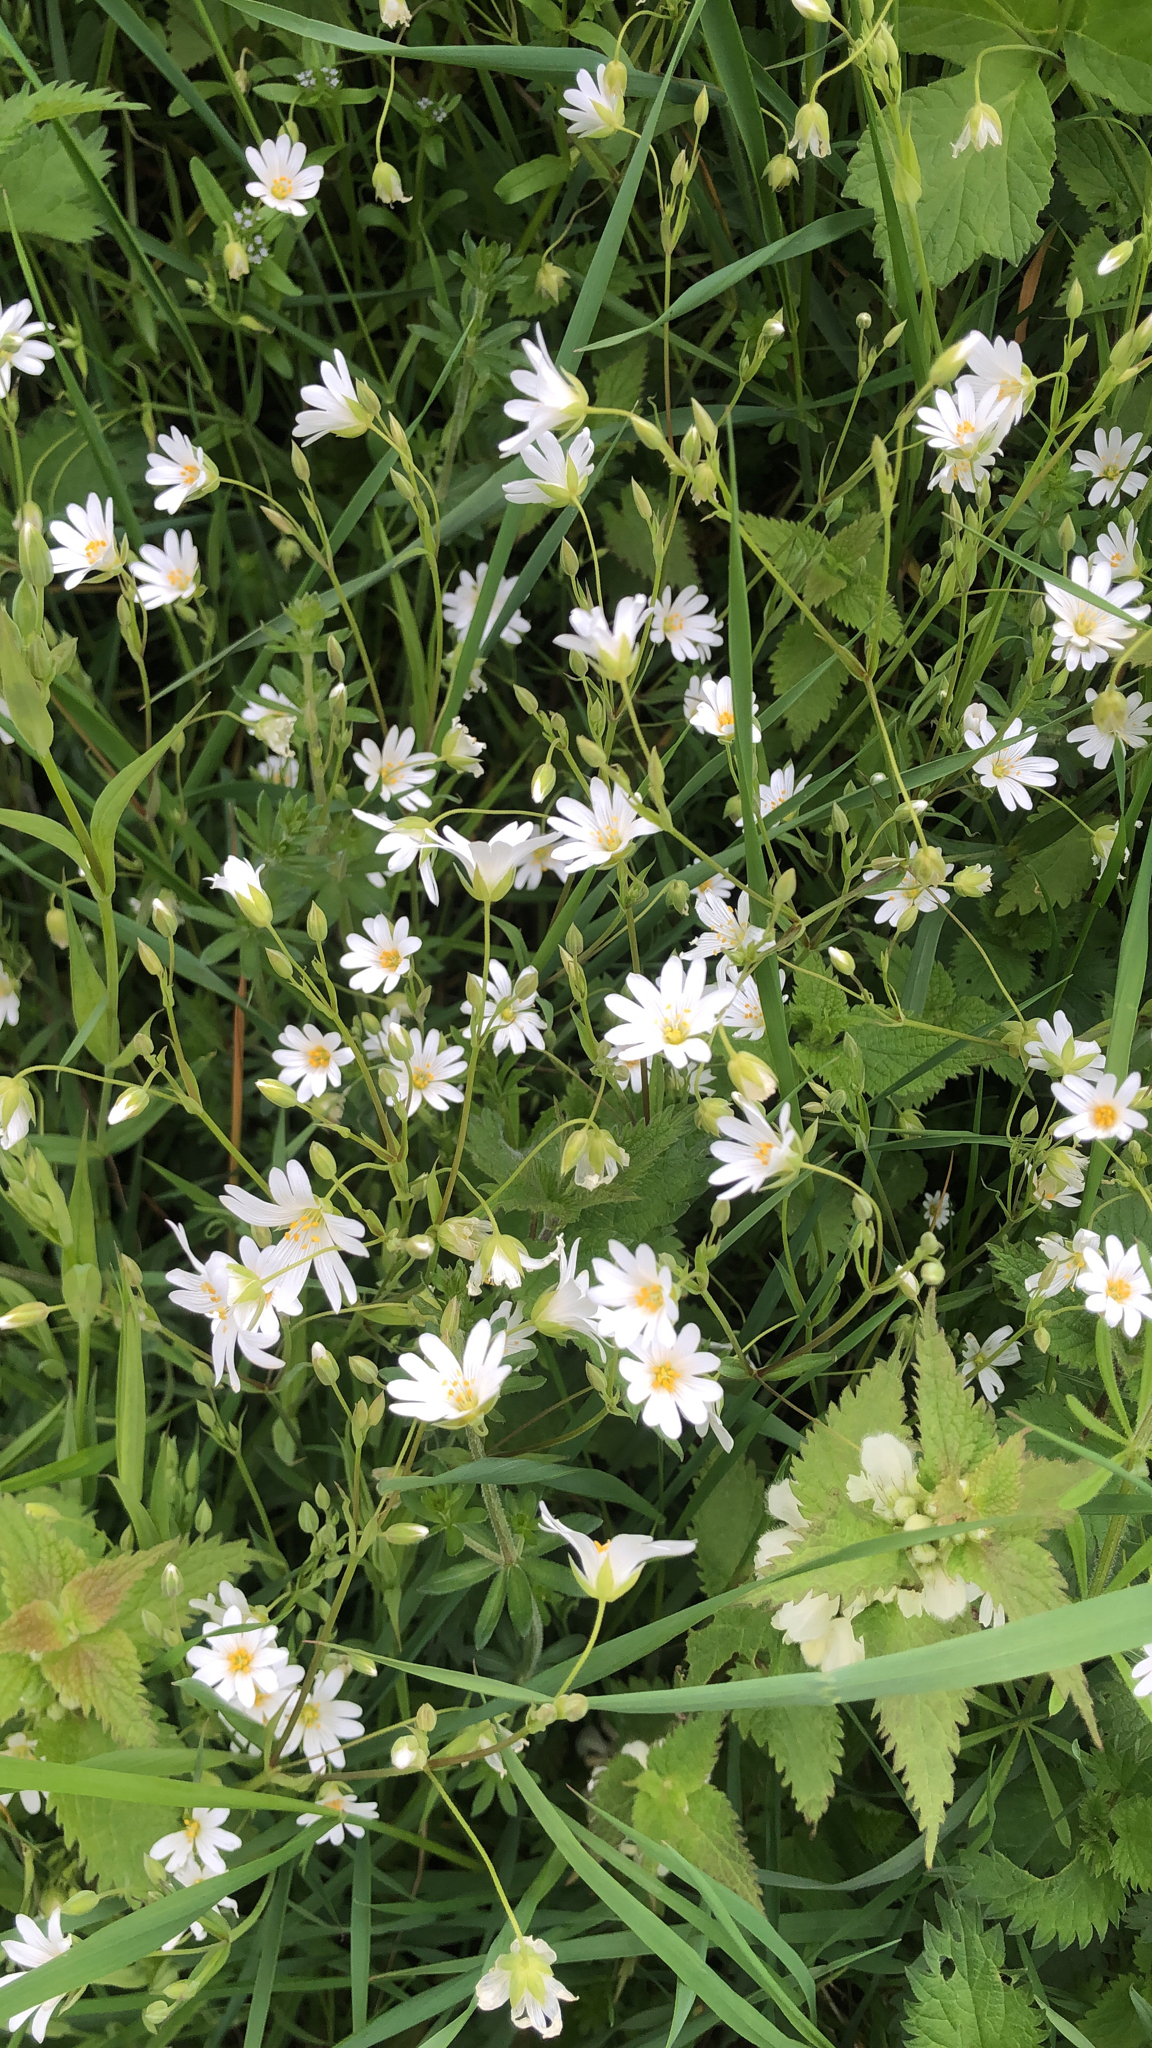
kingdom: Plantae
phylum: Tracheophyta
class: Magnoliopsida
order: Caryophyllales
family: Caryophyllaceae
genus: Rabelera
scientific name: Rabelera holostea
